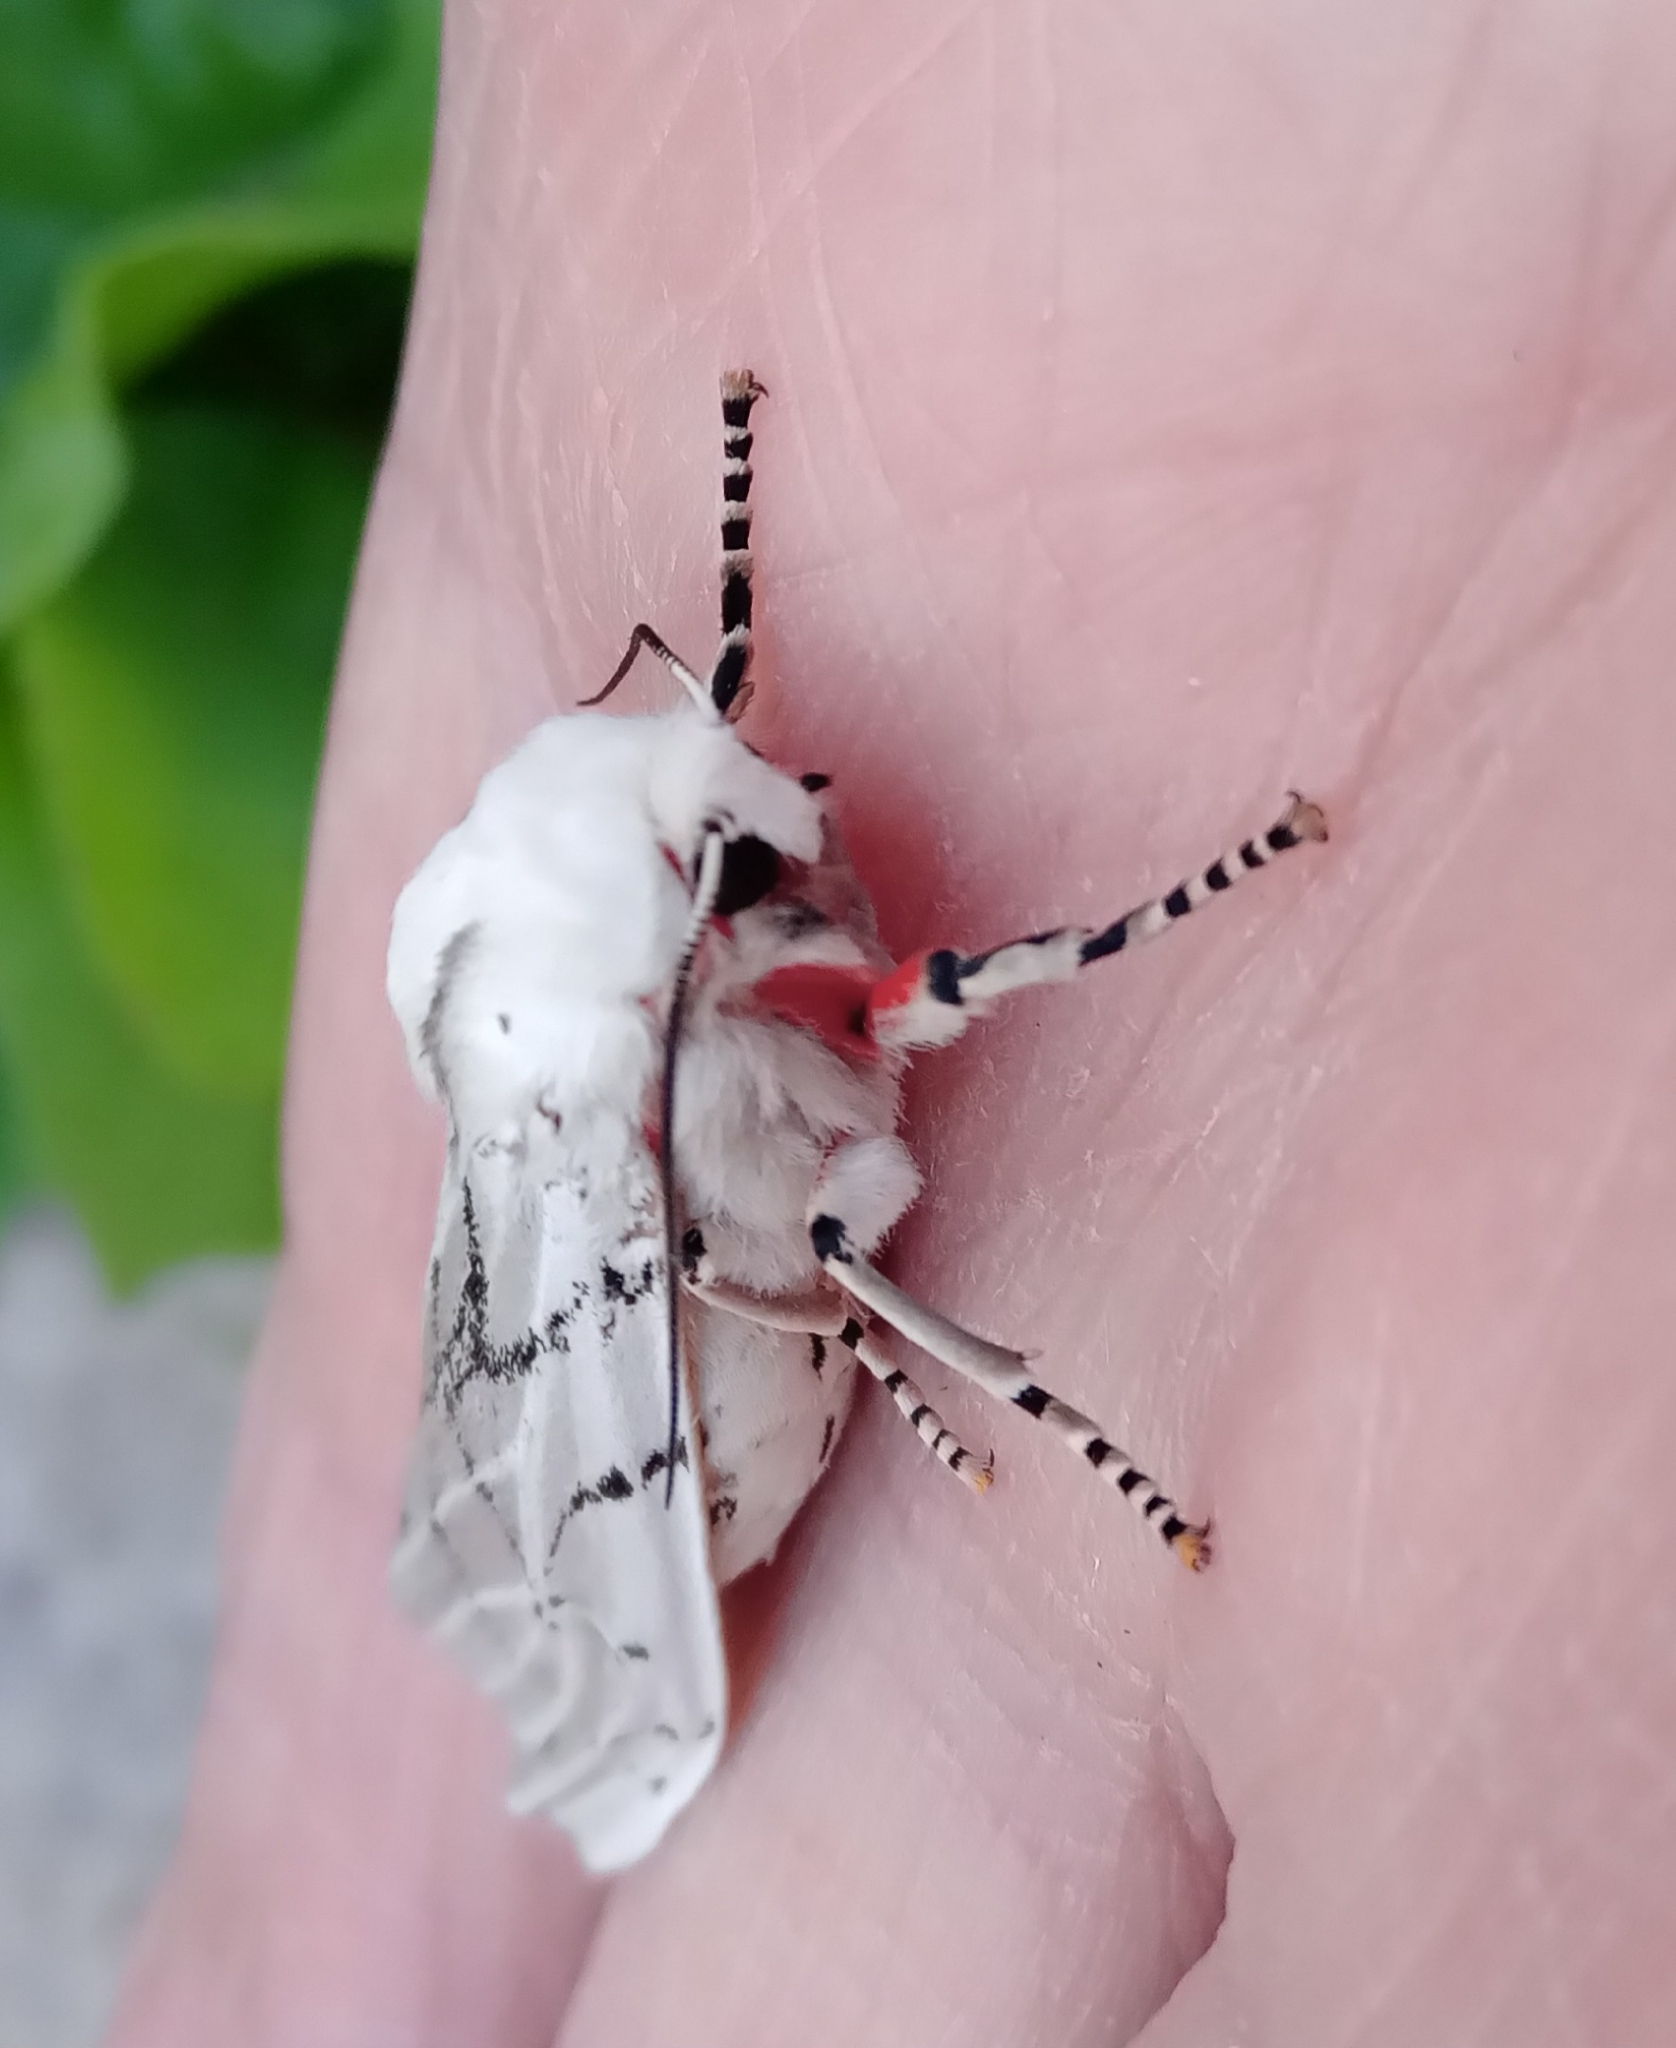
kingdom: Animalia
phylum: Arthropoda
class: Insecta
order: Lepidoptera
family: Erebidae
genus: Rhodogastria
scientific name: Rhodogastria amasis
